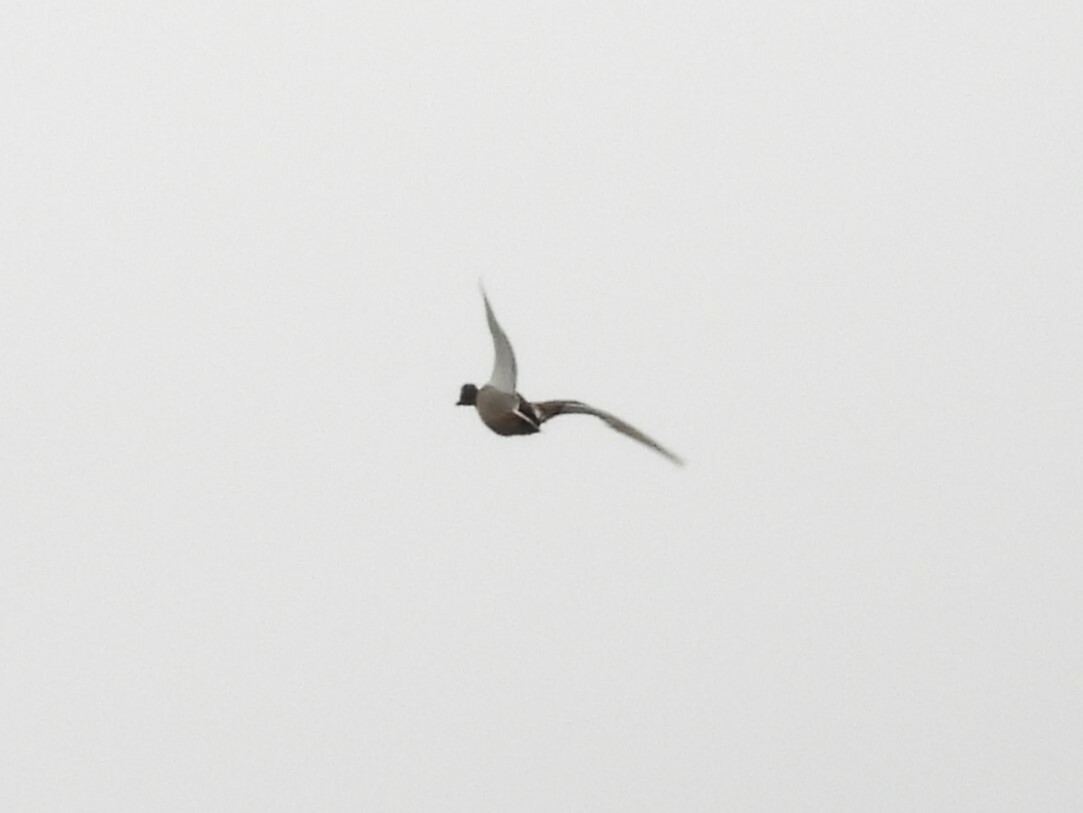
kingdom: Animalia
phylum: Chordata
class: Aves
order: Anseriformes
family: Anatidae
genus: Anas
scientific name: Anas acuta
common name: Northern pintail
